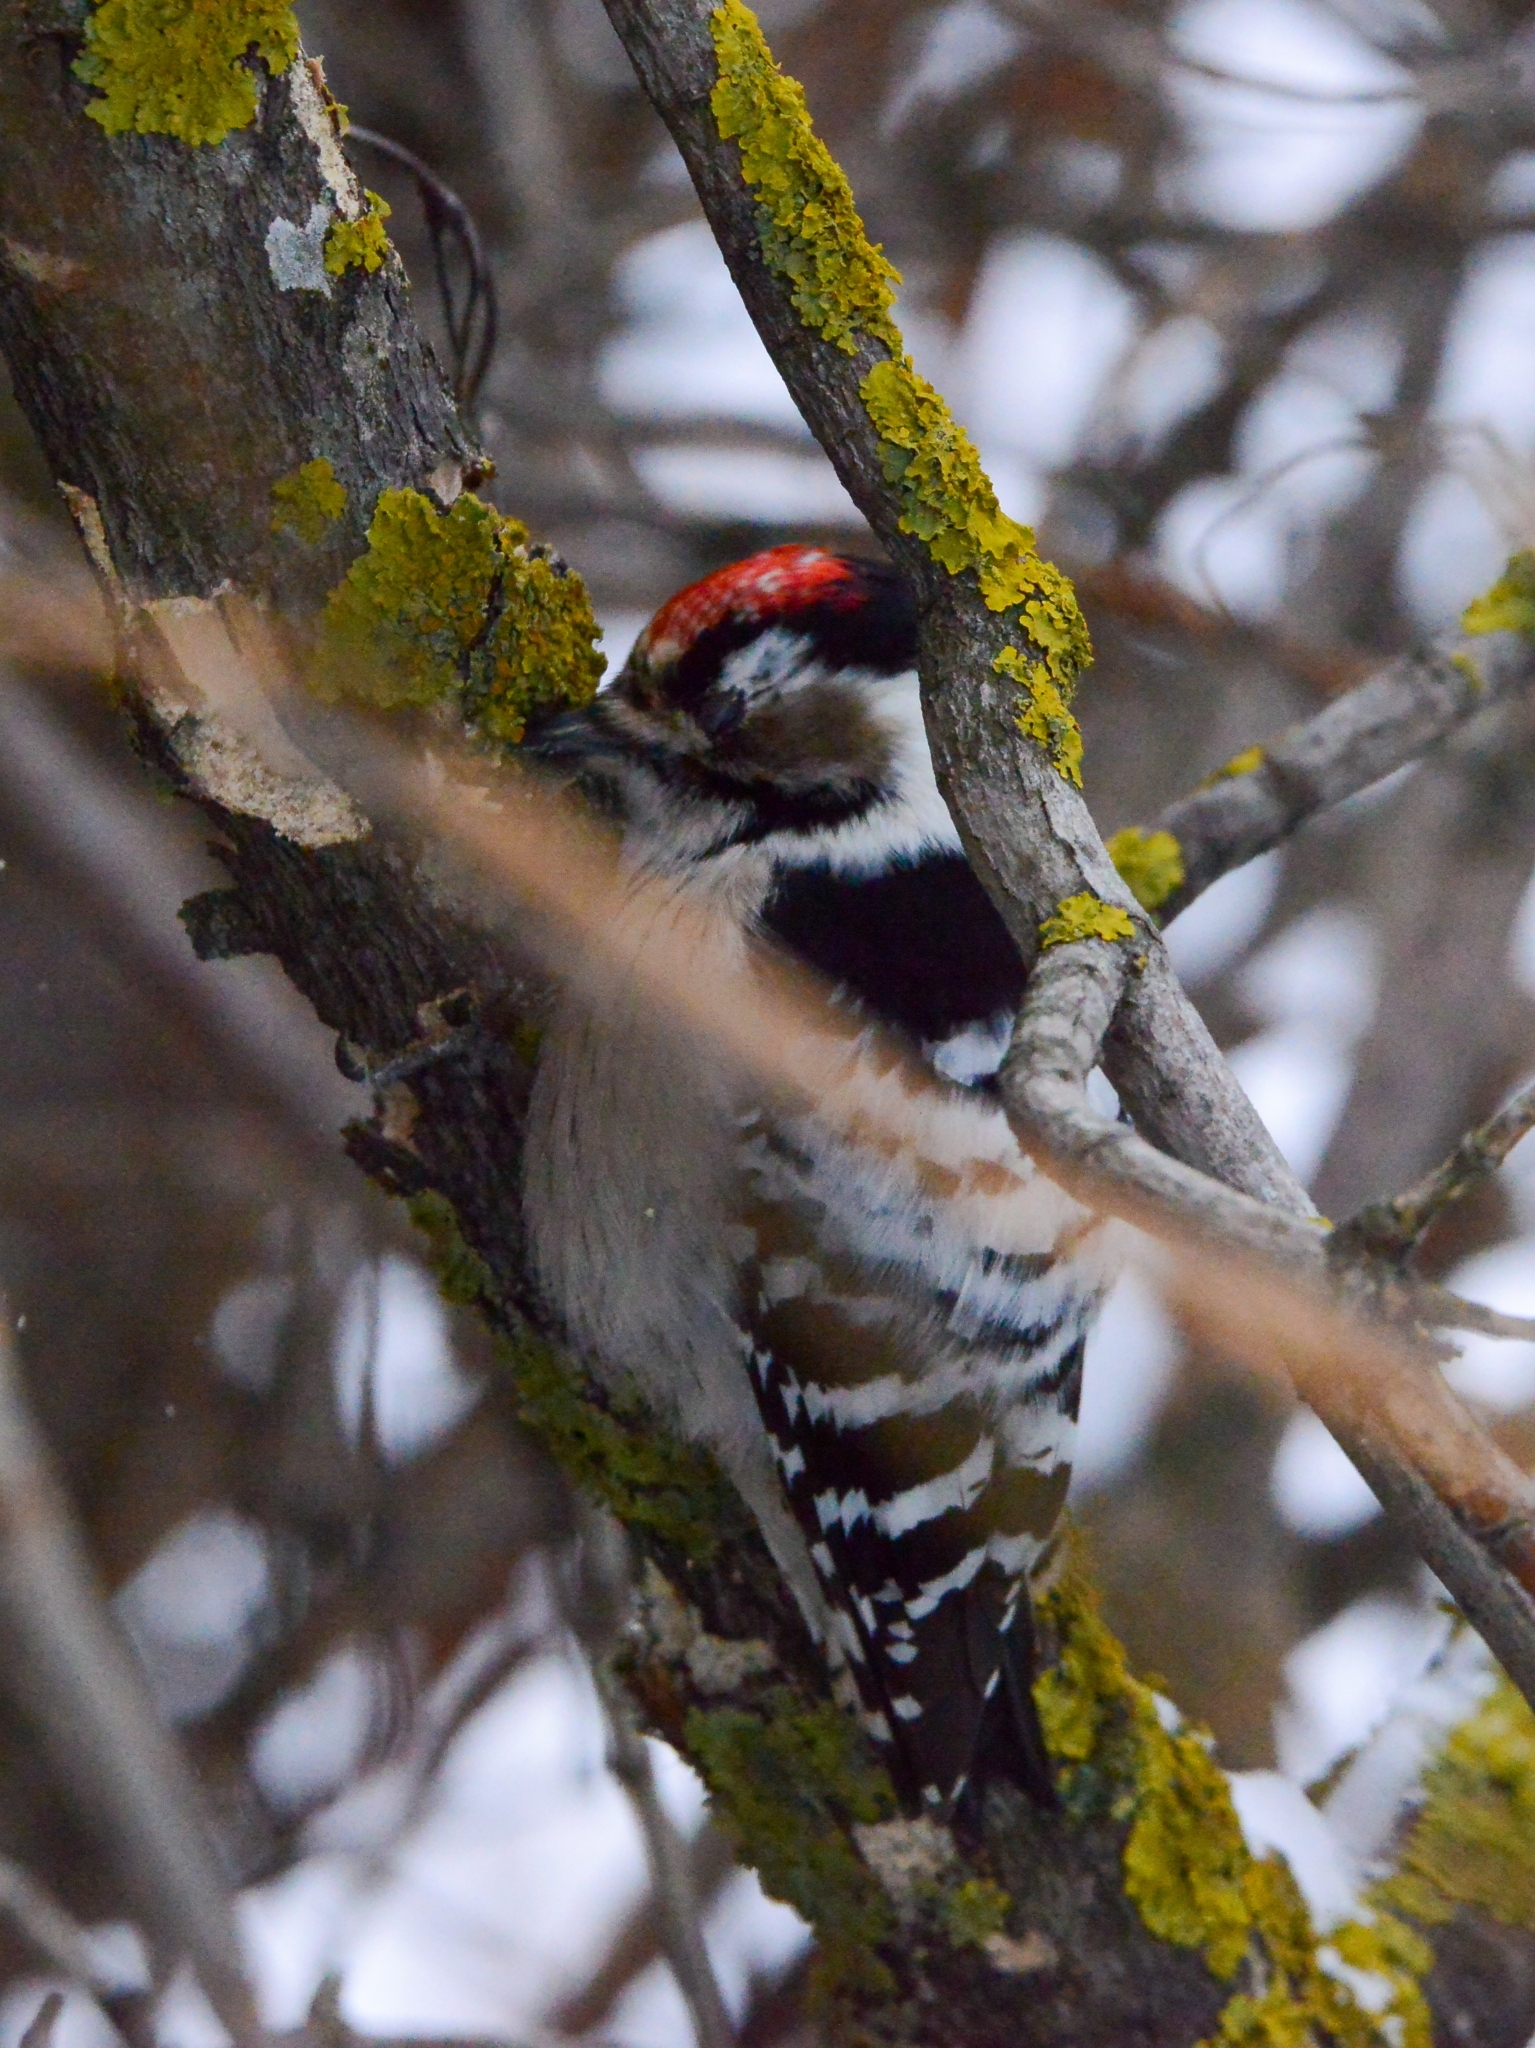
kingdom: Animalia
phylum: Chordata
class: Aves
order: Piciformes
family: Picidae
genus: Dryobates
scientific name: Dryobates minor
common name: Lesser spotted woodpecker
